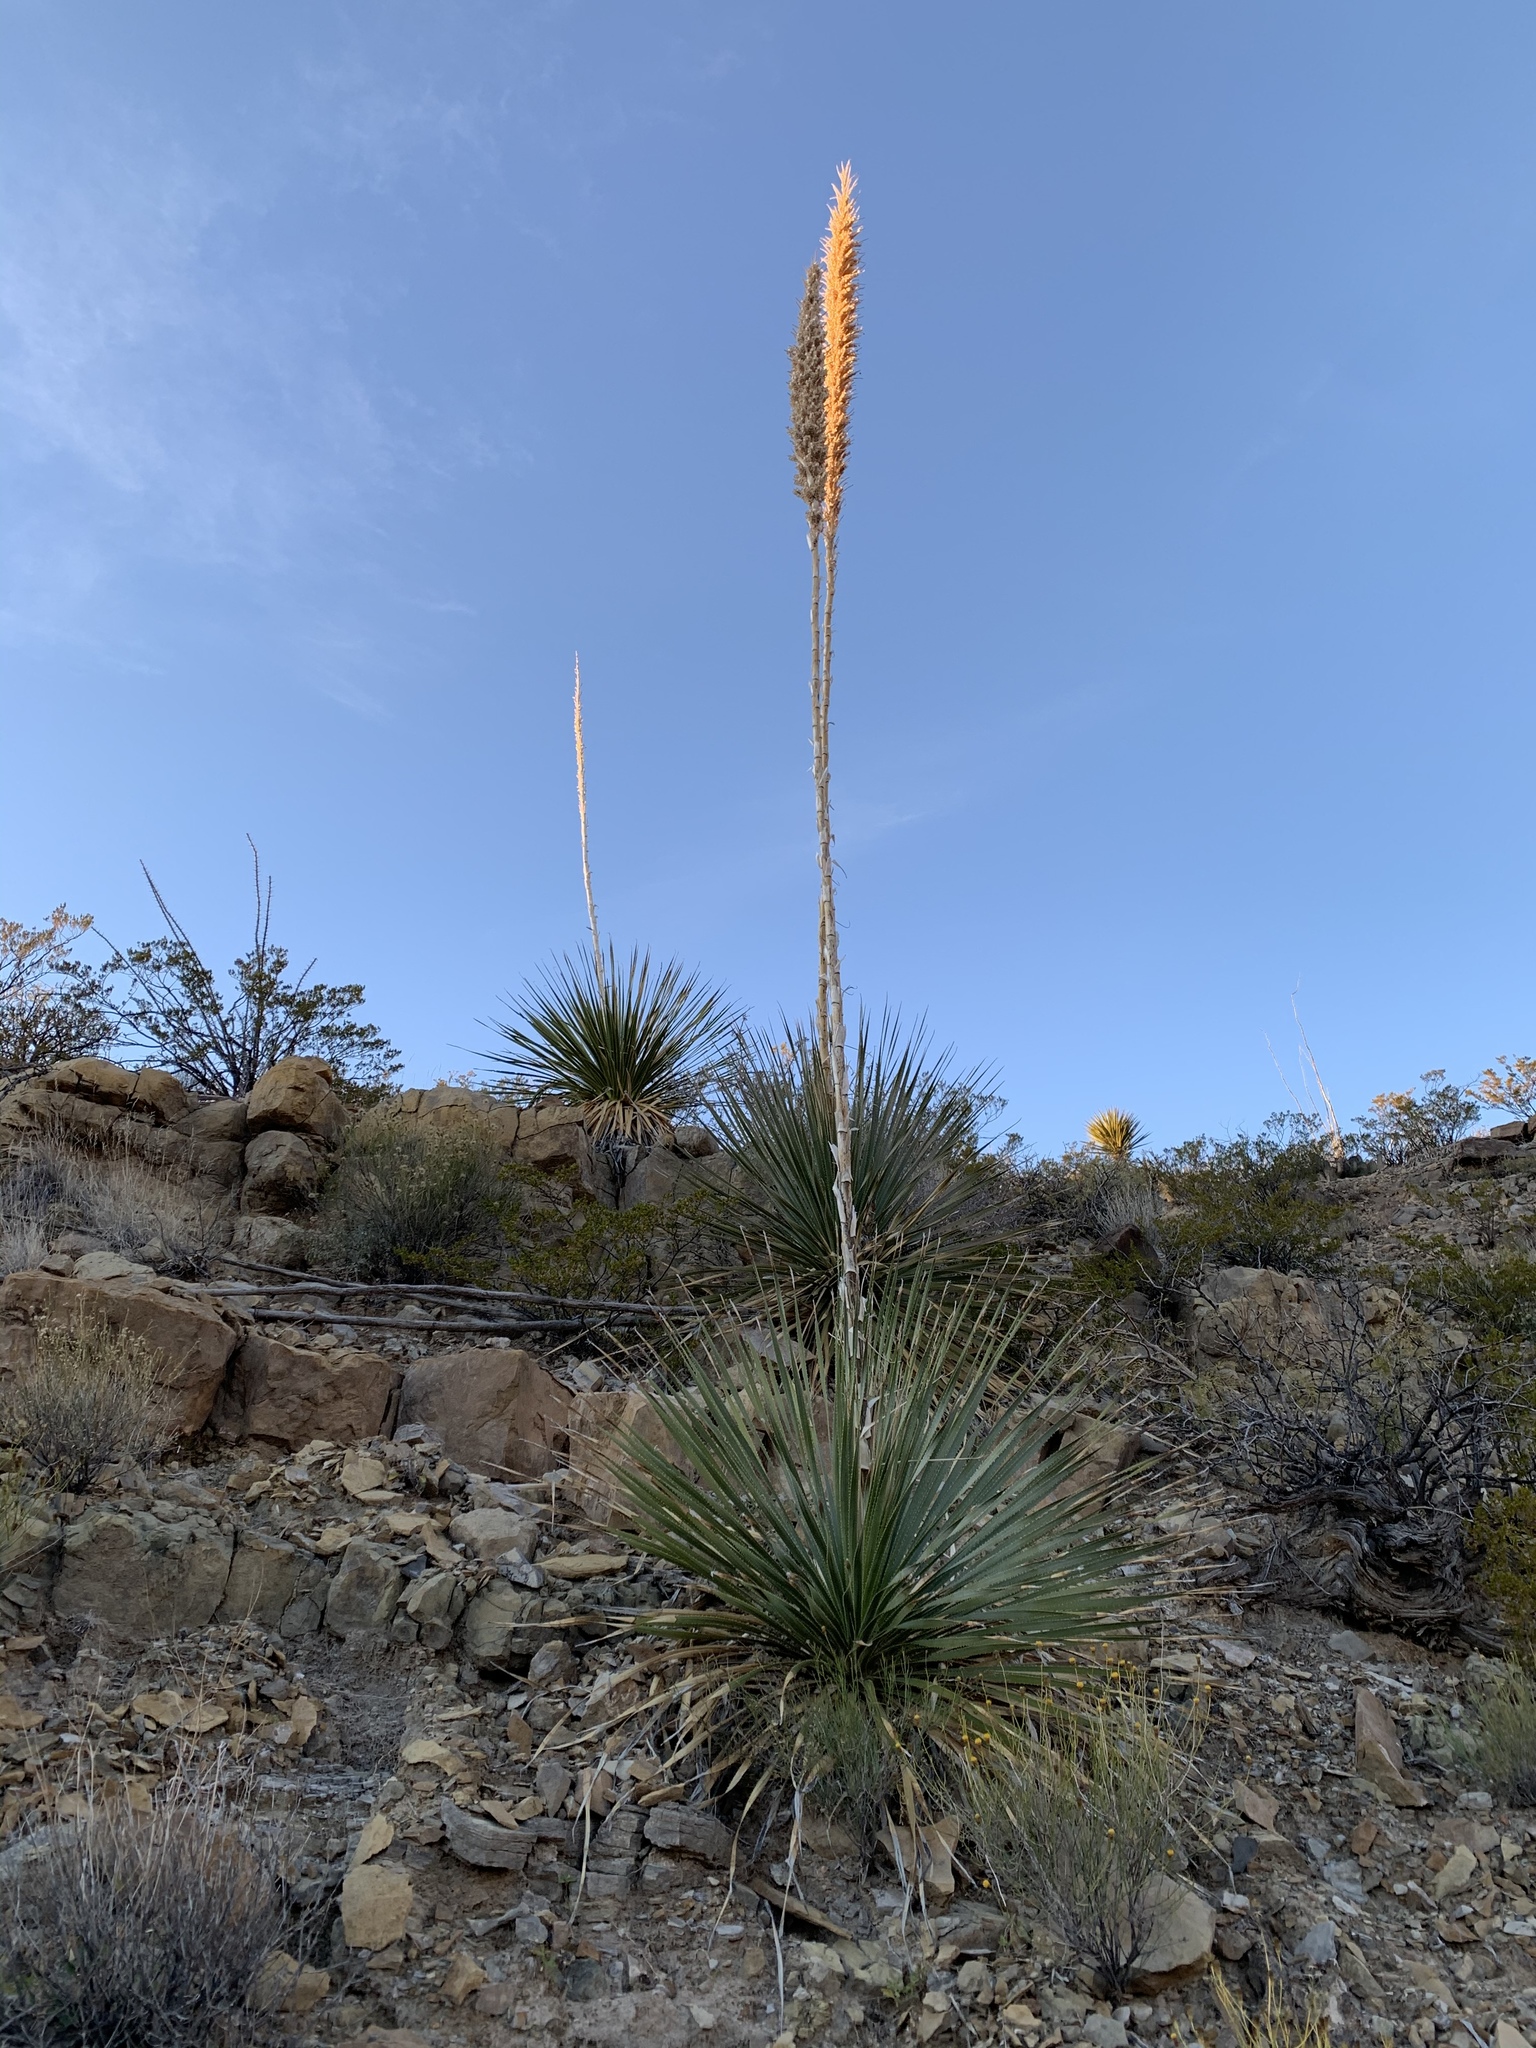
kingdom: Plantae
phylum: Tracheophyta
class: Liliopsida
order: Asparagales
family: Asparagaceae
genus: Dasylirion
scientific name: Dasylirion wheeleri
